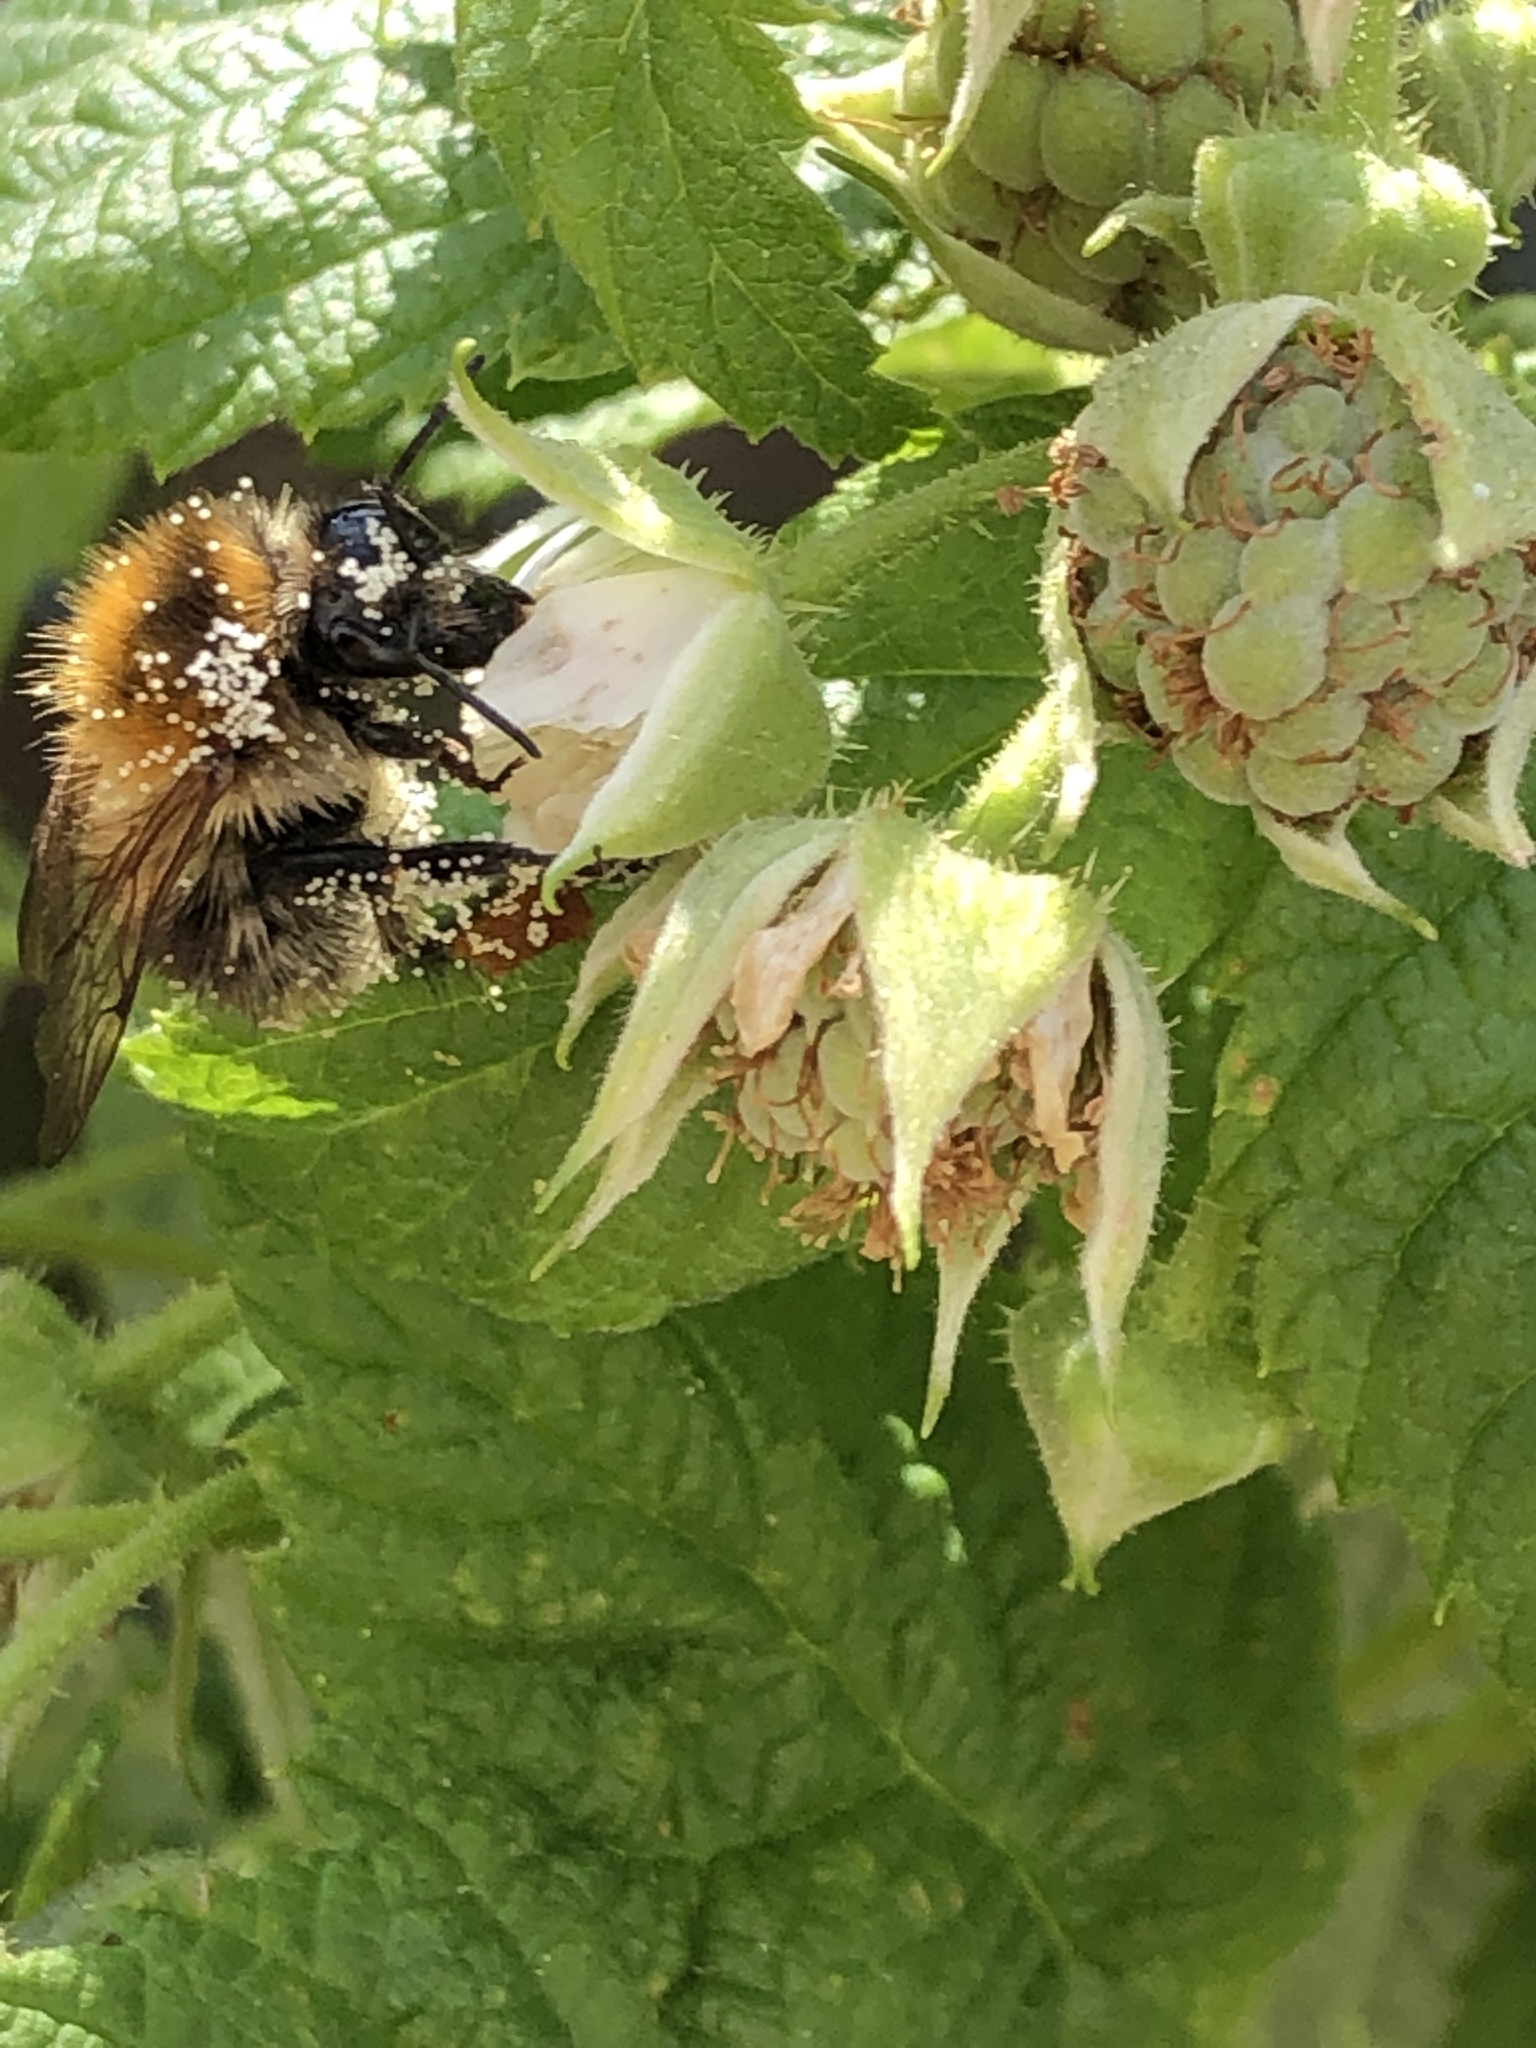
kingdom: Animalia
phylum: Arthropoda
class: Insecta
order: Hymenoptera
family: Apidae
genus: Bombus
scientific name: Bombus pascuorum
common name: Common carder bee
